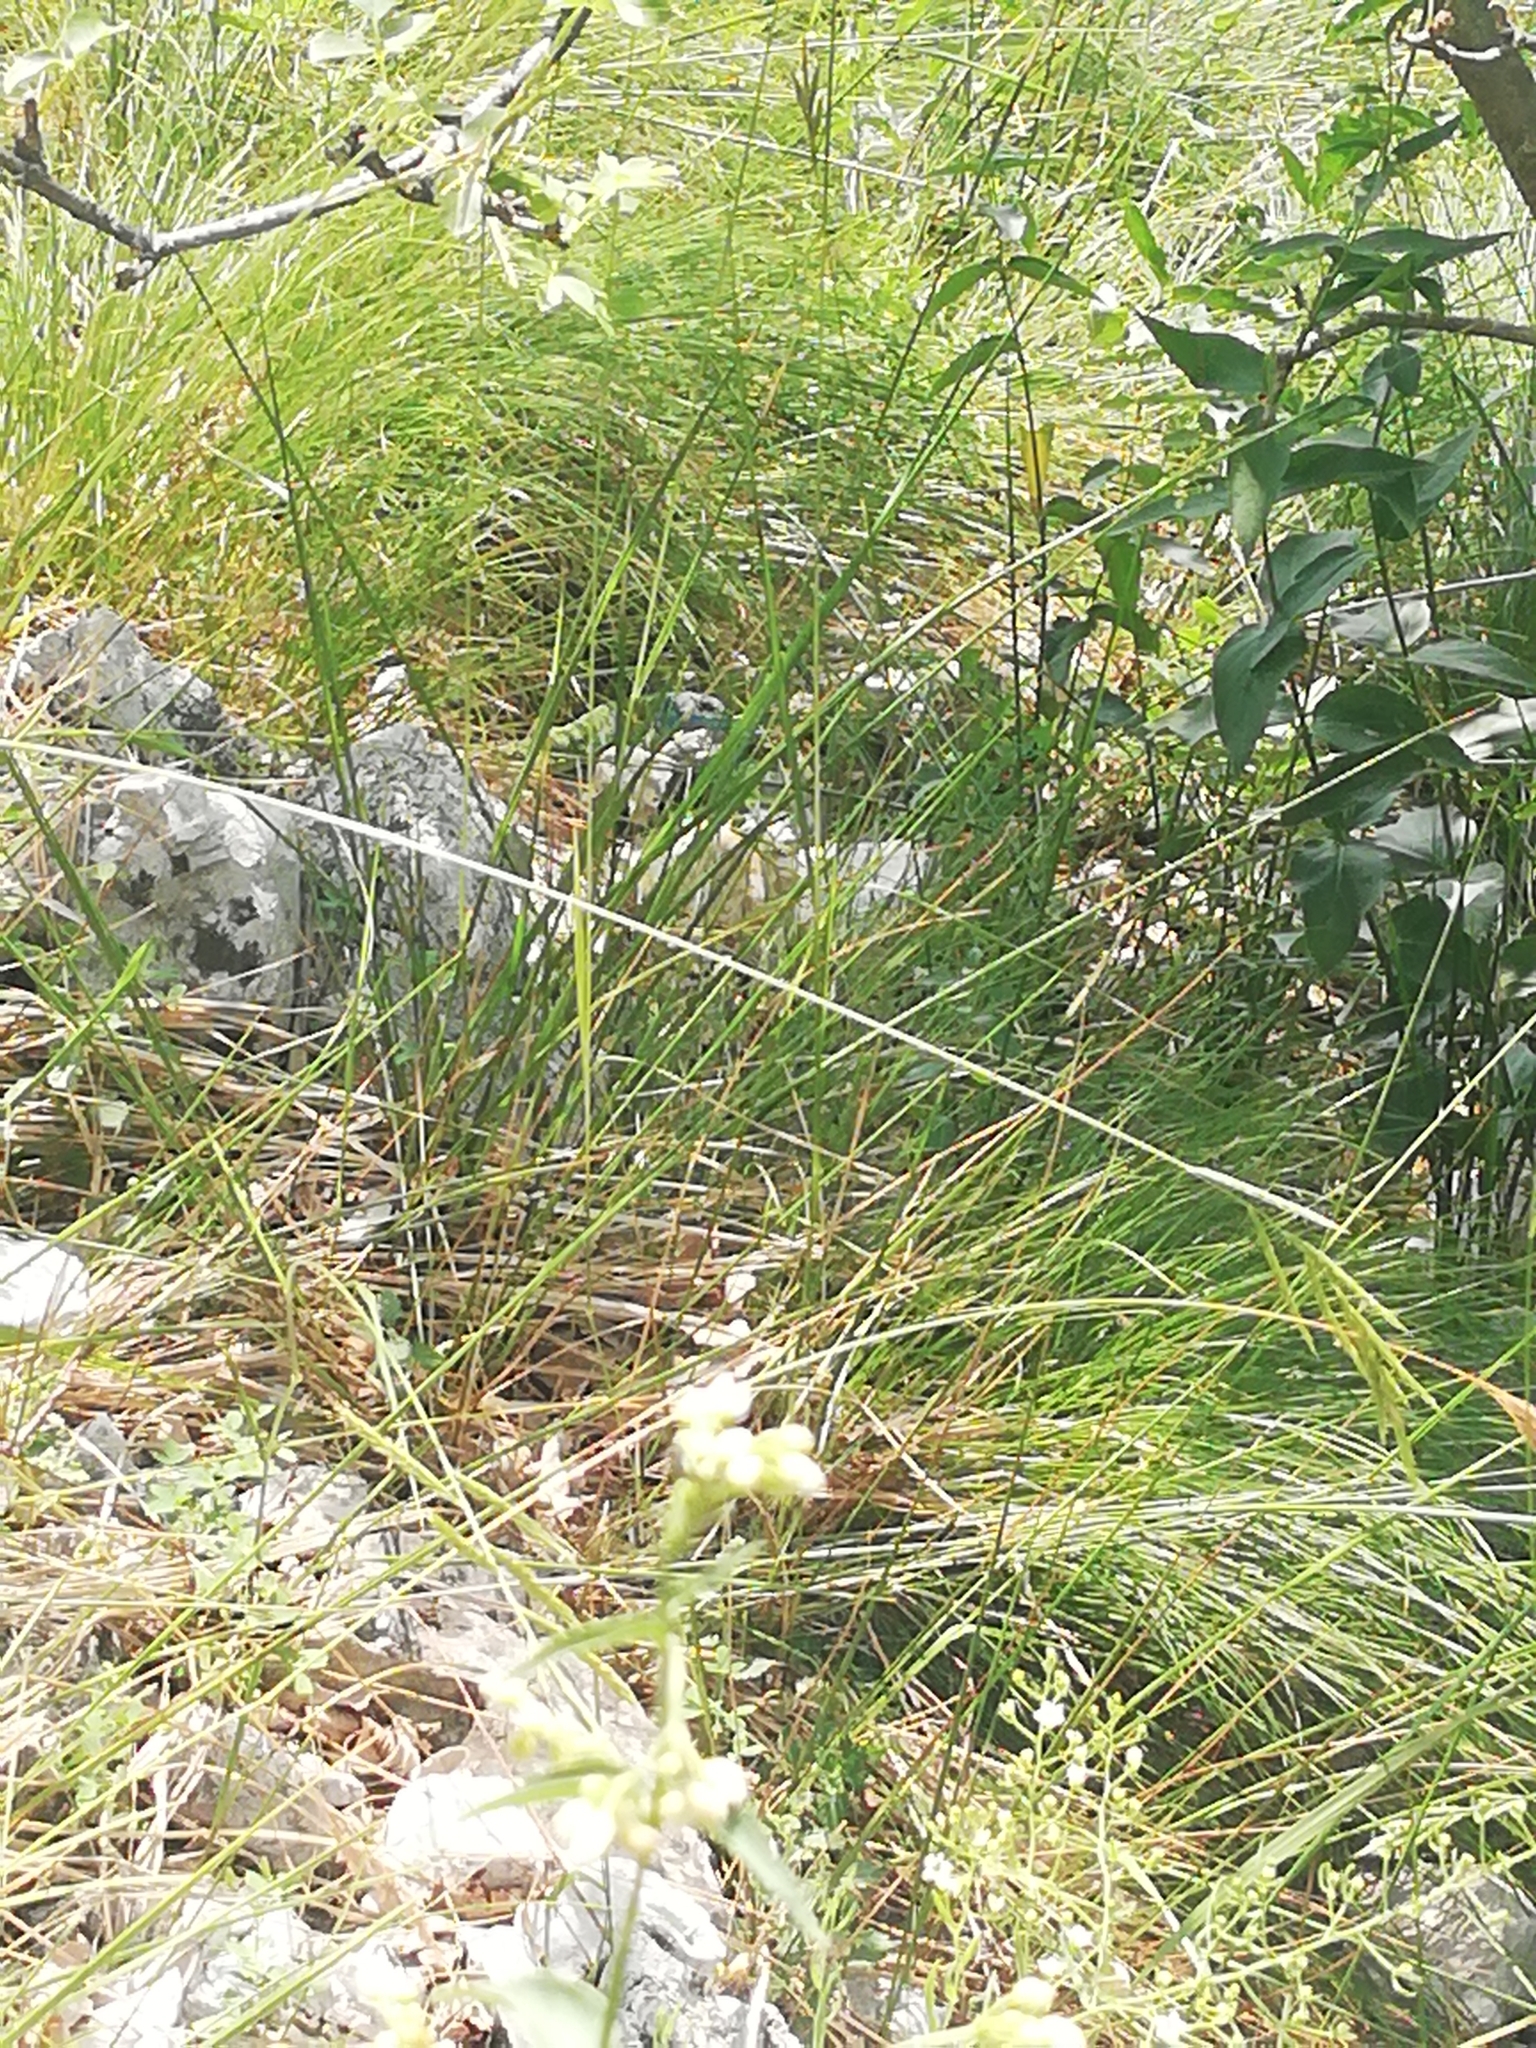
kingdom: Animalia
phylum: Chordata
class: Squamata
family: Lacertidae
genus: Lacerta
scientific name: Lacerta bilineata
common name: Western green lizard
